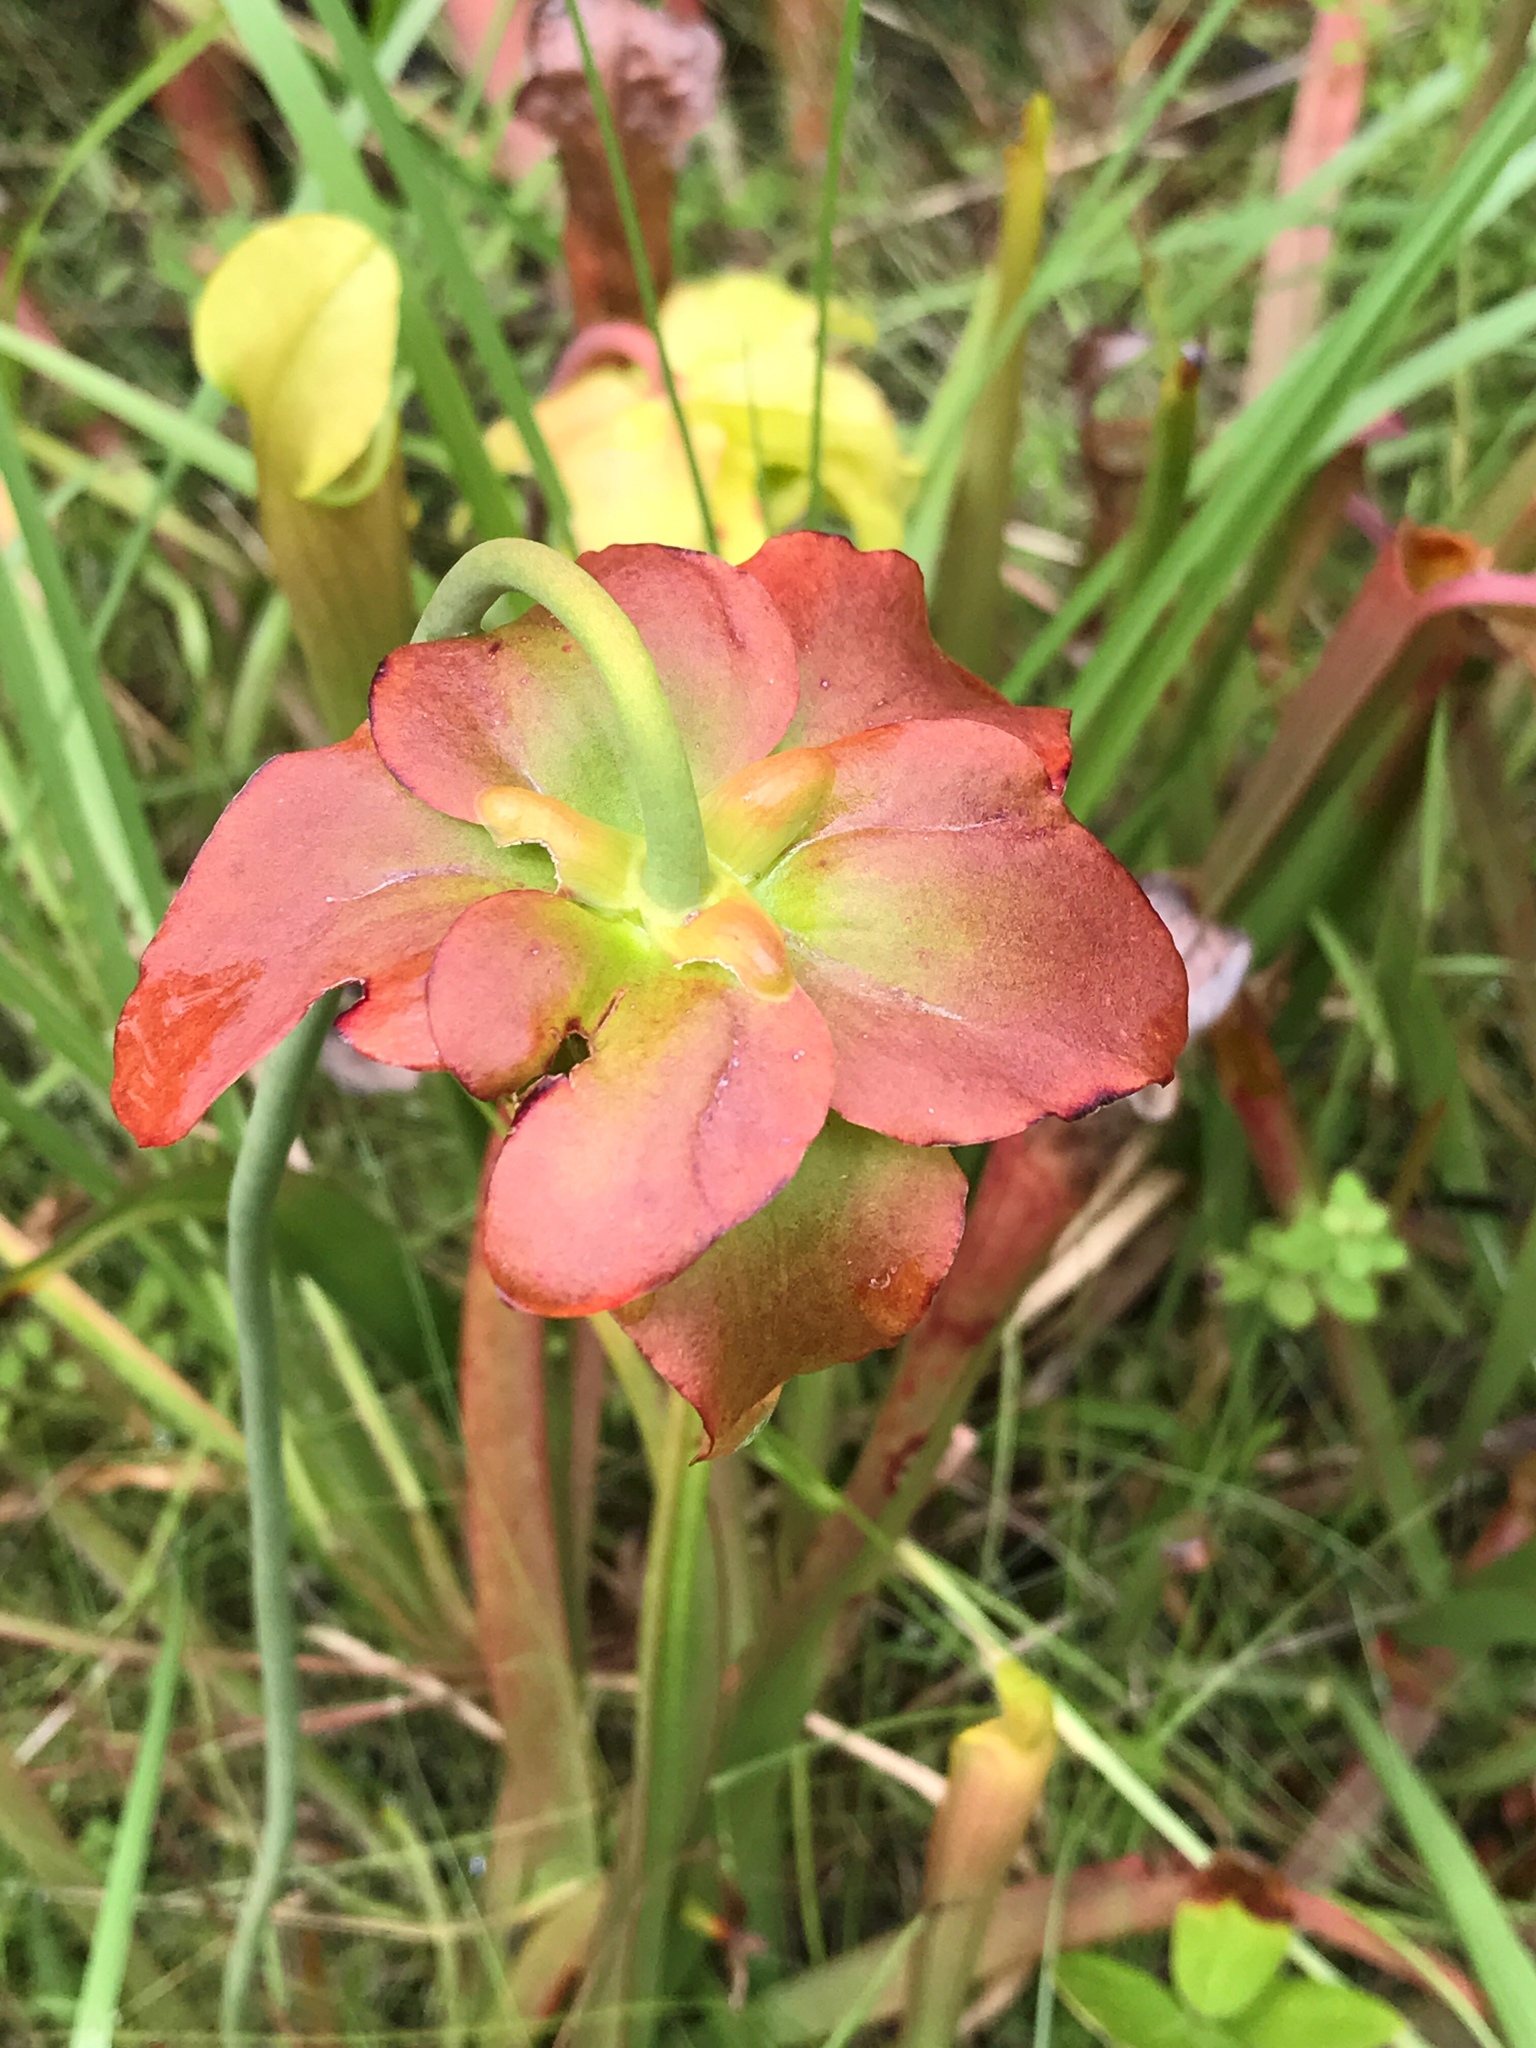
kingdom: Plantae
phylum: Tracheophyta
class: Magnoliopsida
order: Ericales
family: Sarraceniaceae
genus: Sarracenia
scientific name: Sarracenia alata
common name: Yellow trumpets
